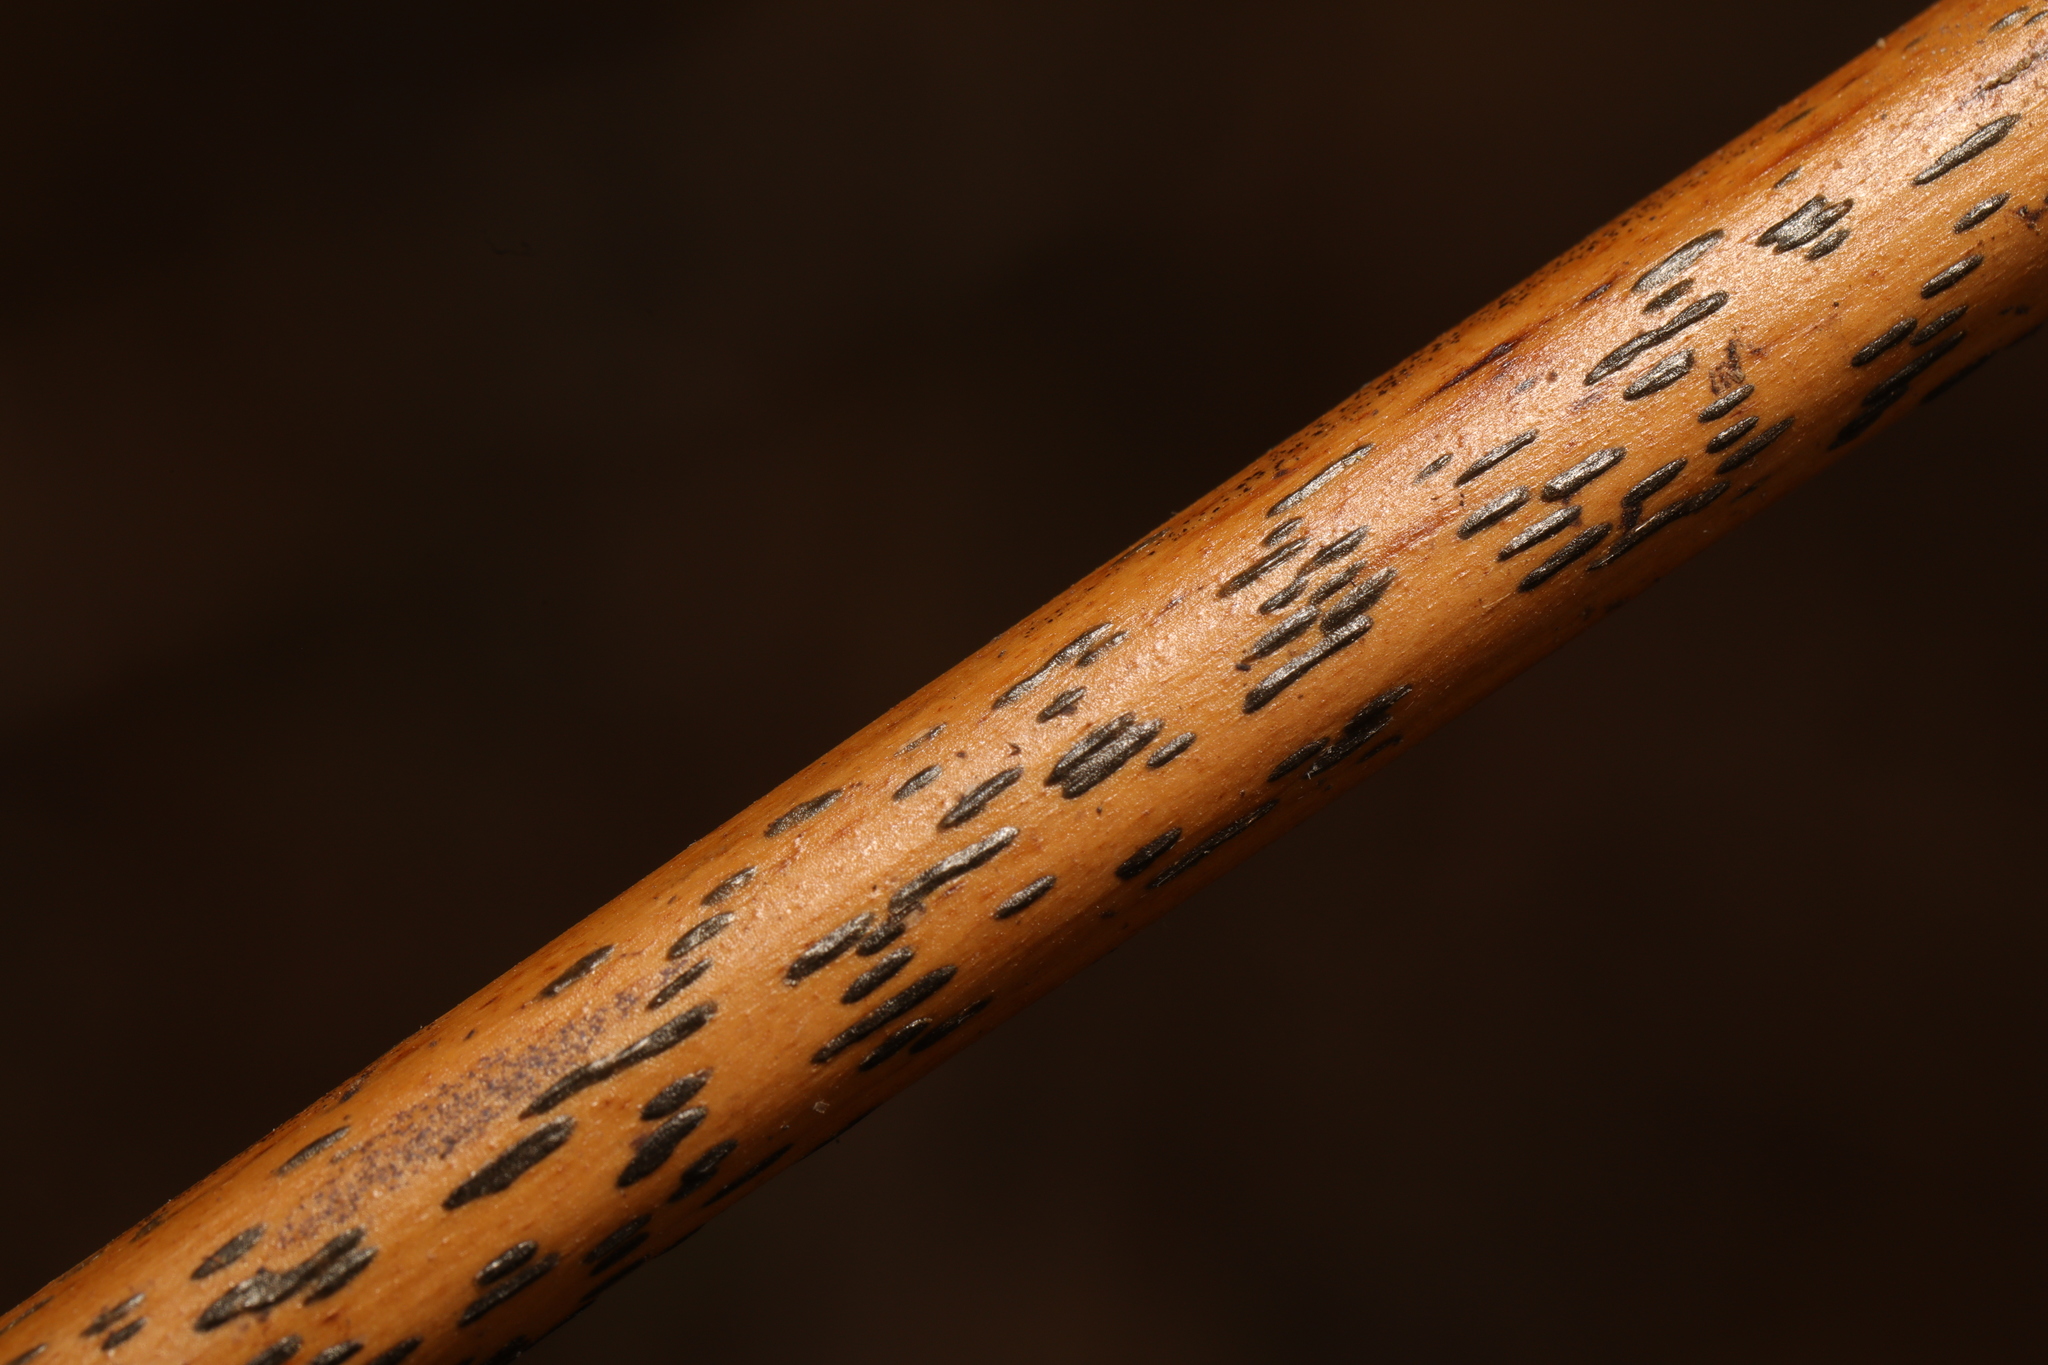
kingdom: Fungi
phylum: Ascomycota
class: Dothideomycetes
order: Pleosporales
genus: Rhopographus
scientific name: Rhopographus filicinus
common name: Bracken map
